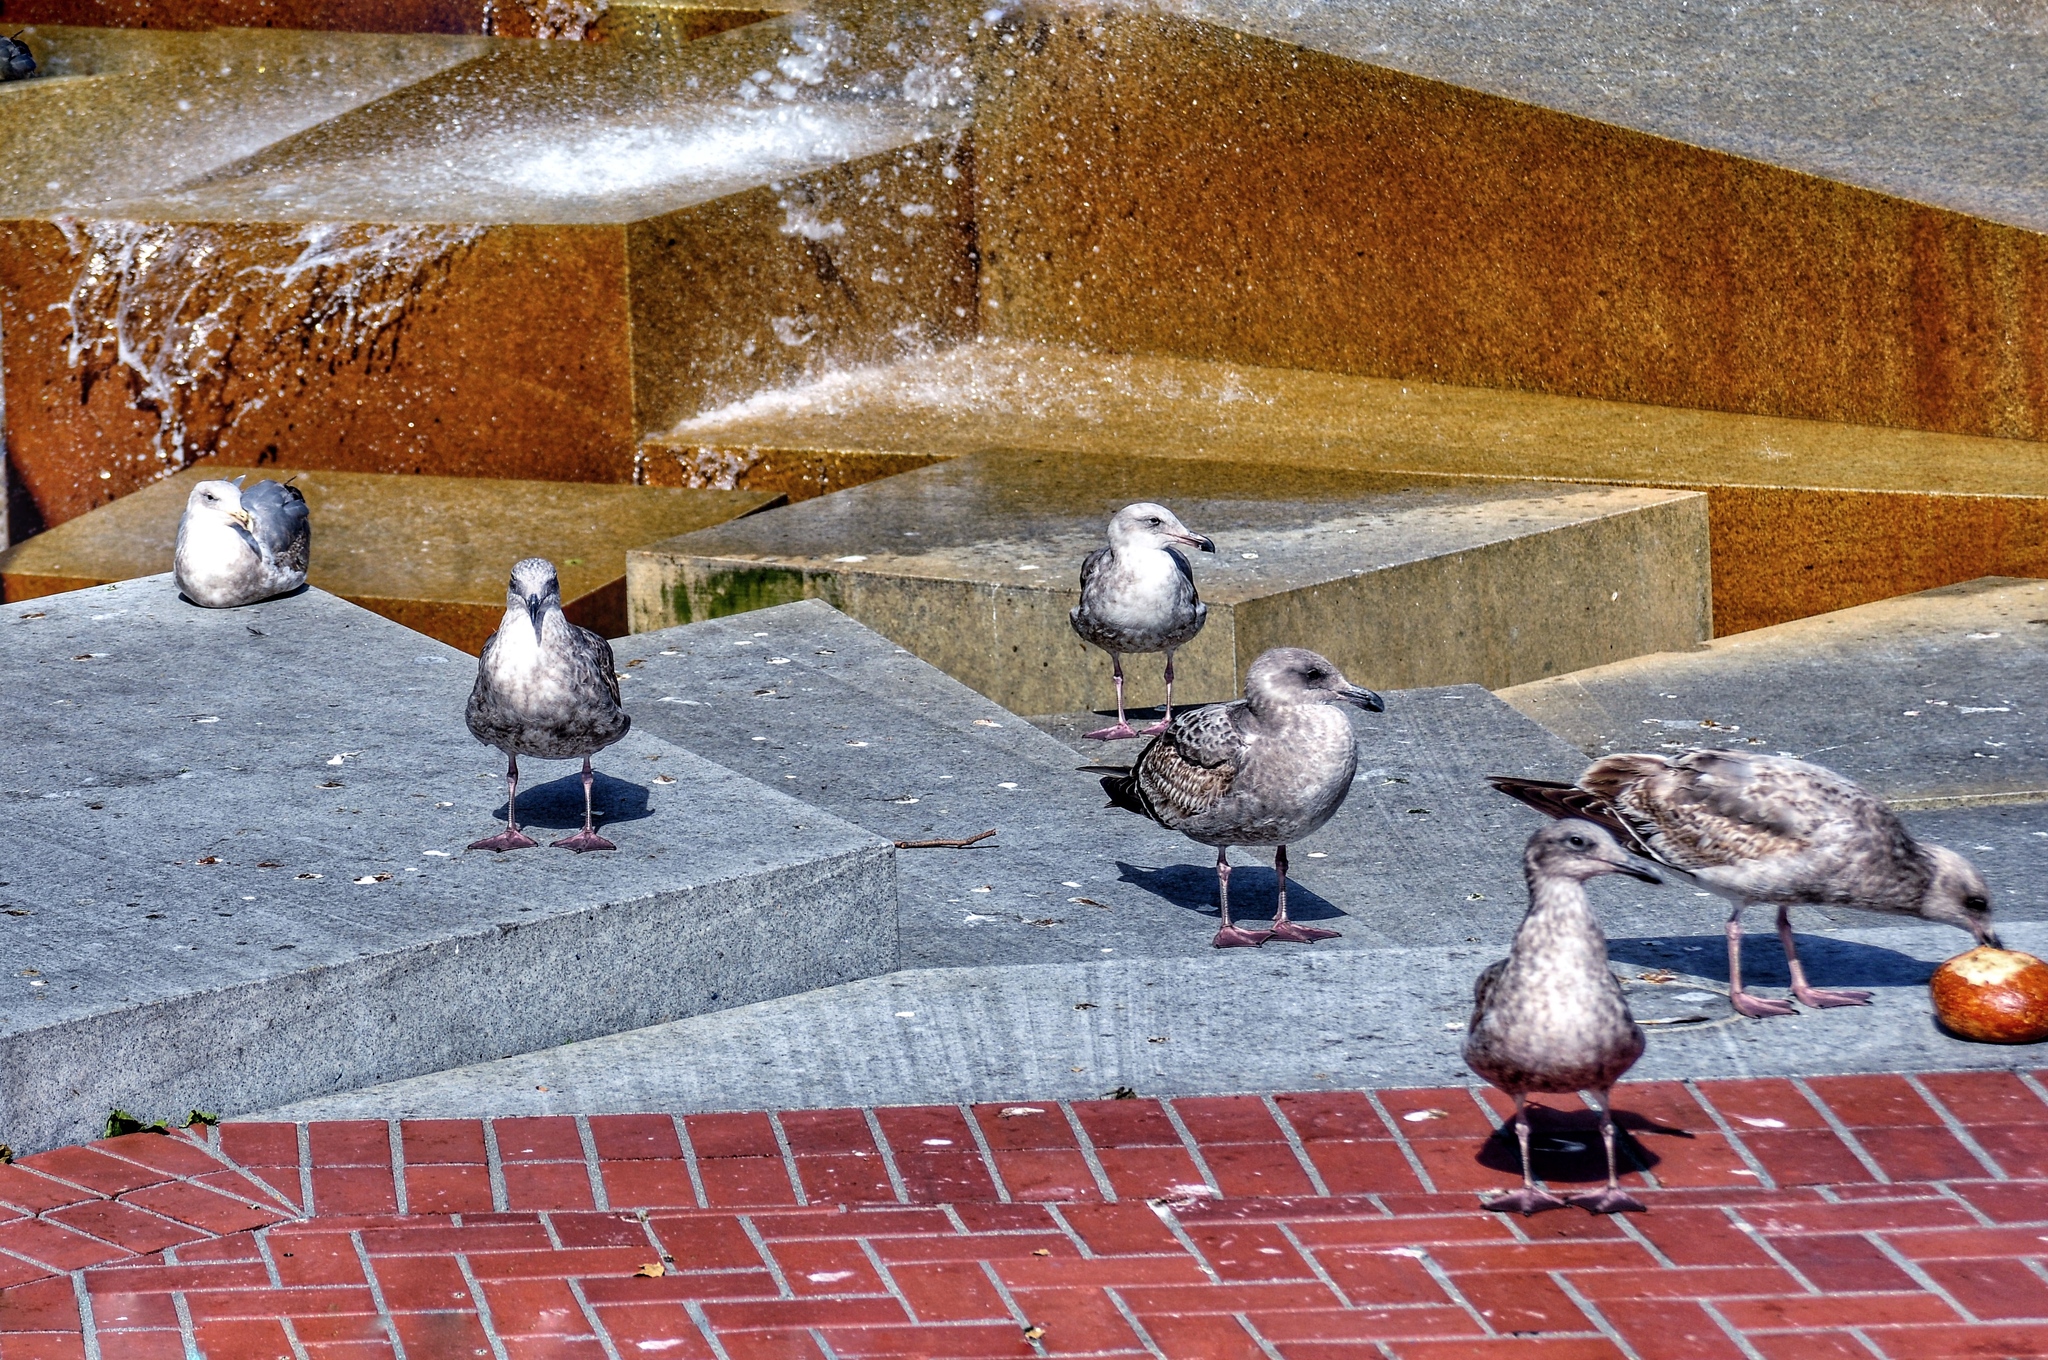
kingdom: Animalia
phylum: Chordata
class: Aves
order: Charadriiformes
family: Laridae
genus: Larus
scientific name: Larus occidentalis
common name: Western gull
